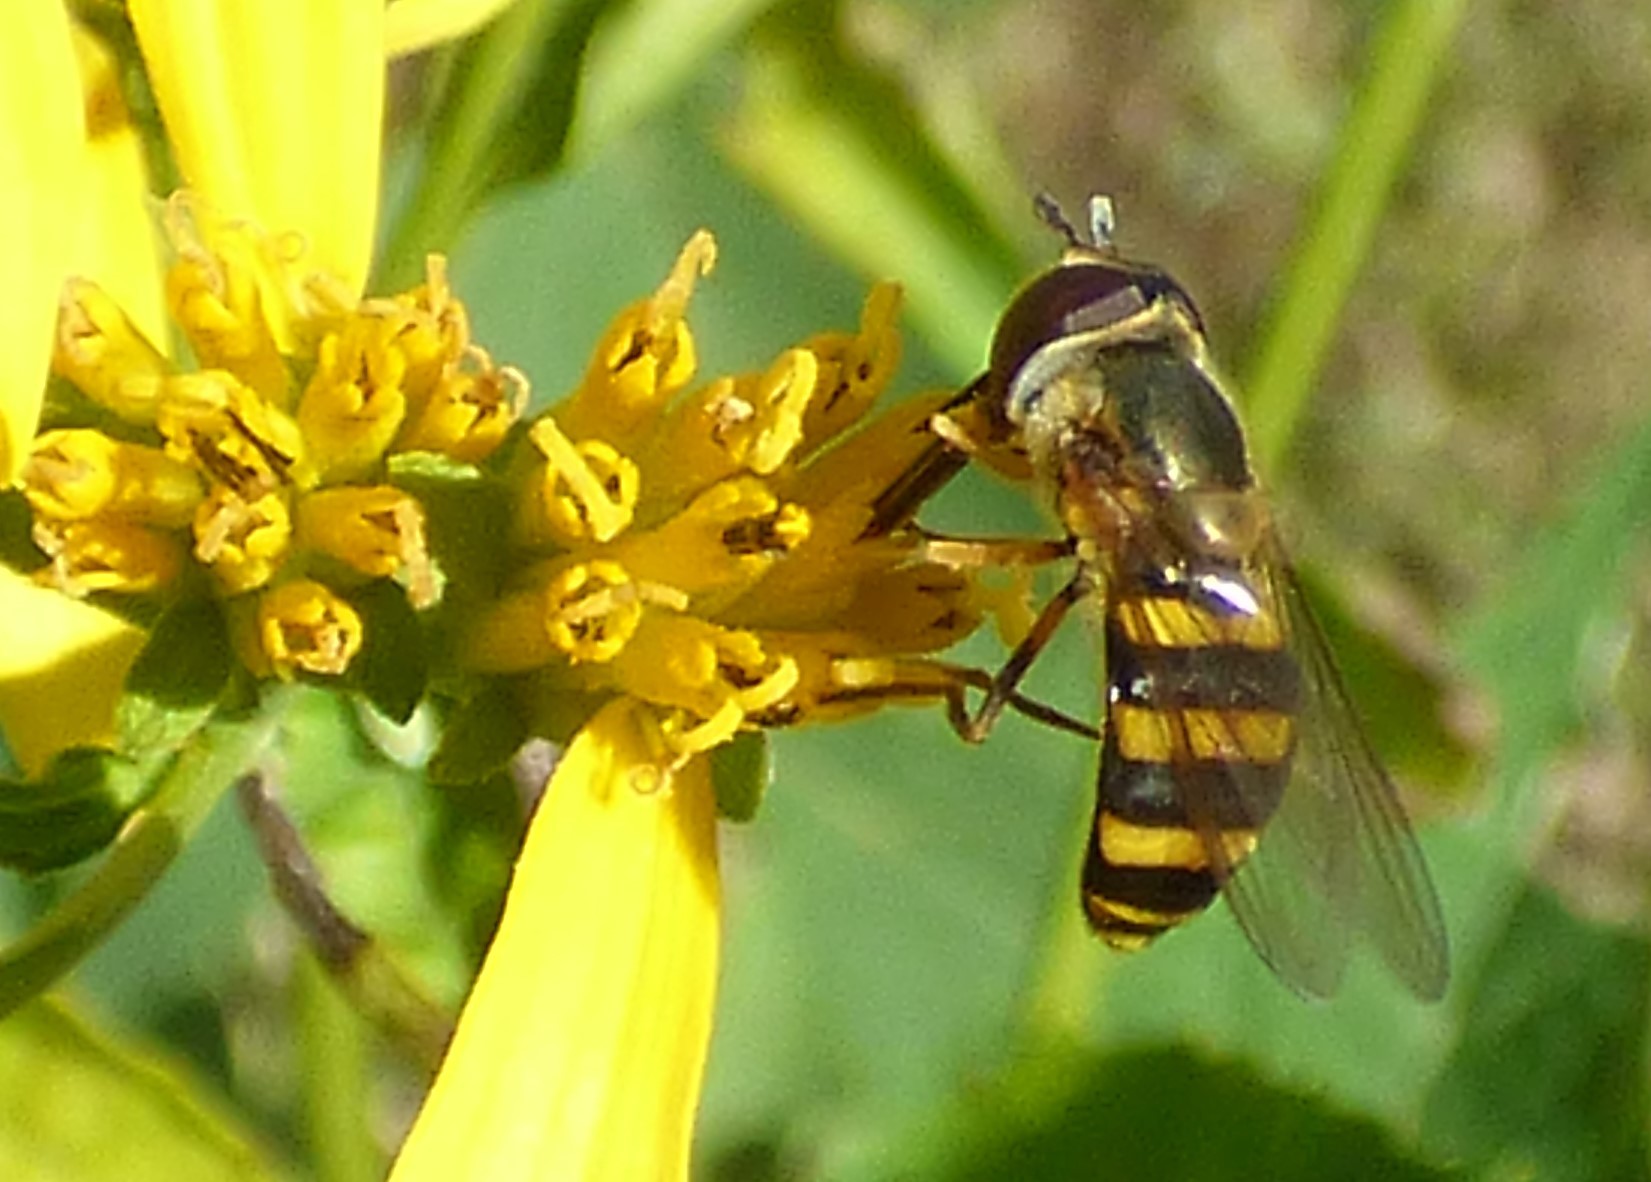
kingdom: Animalia
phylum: Arthropoda
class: Insecta
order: Diptera
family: Syrphidae
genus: Eupeodes
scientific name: Eupeodes
